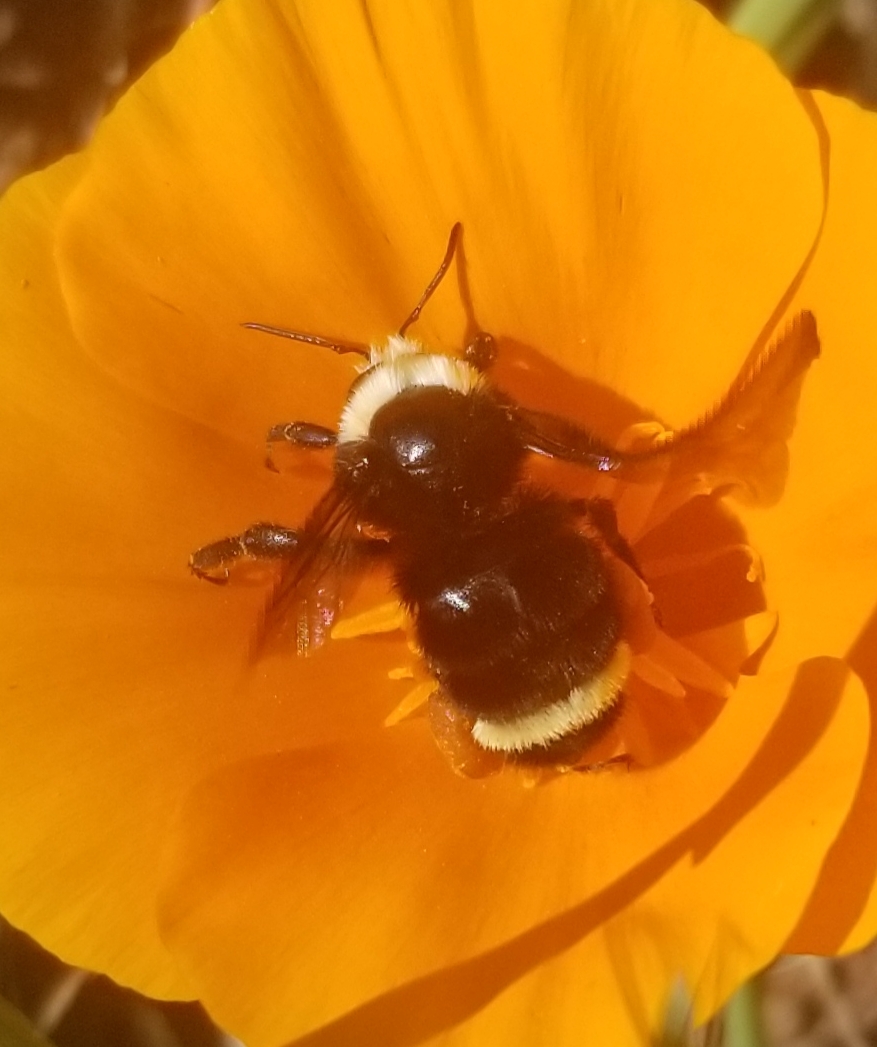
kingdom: Animalia
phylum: Arthropoda
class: Insecta
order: Hymenoptera
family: Apidae
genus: Bombus
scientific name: Bombus vosnesenskii
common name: Vosnesensky bumble bee
